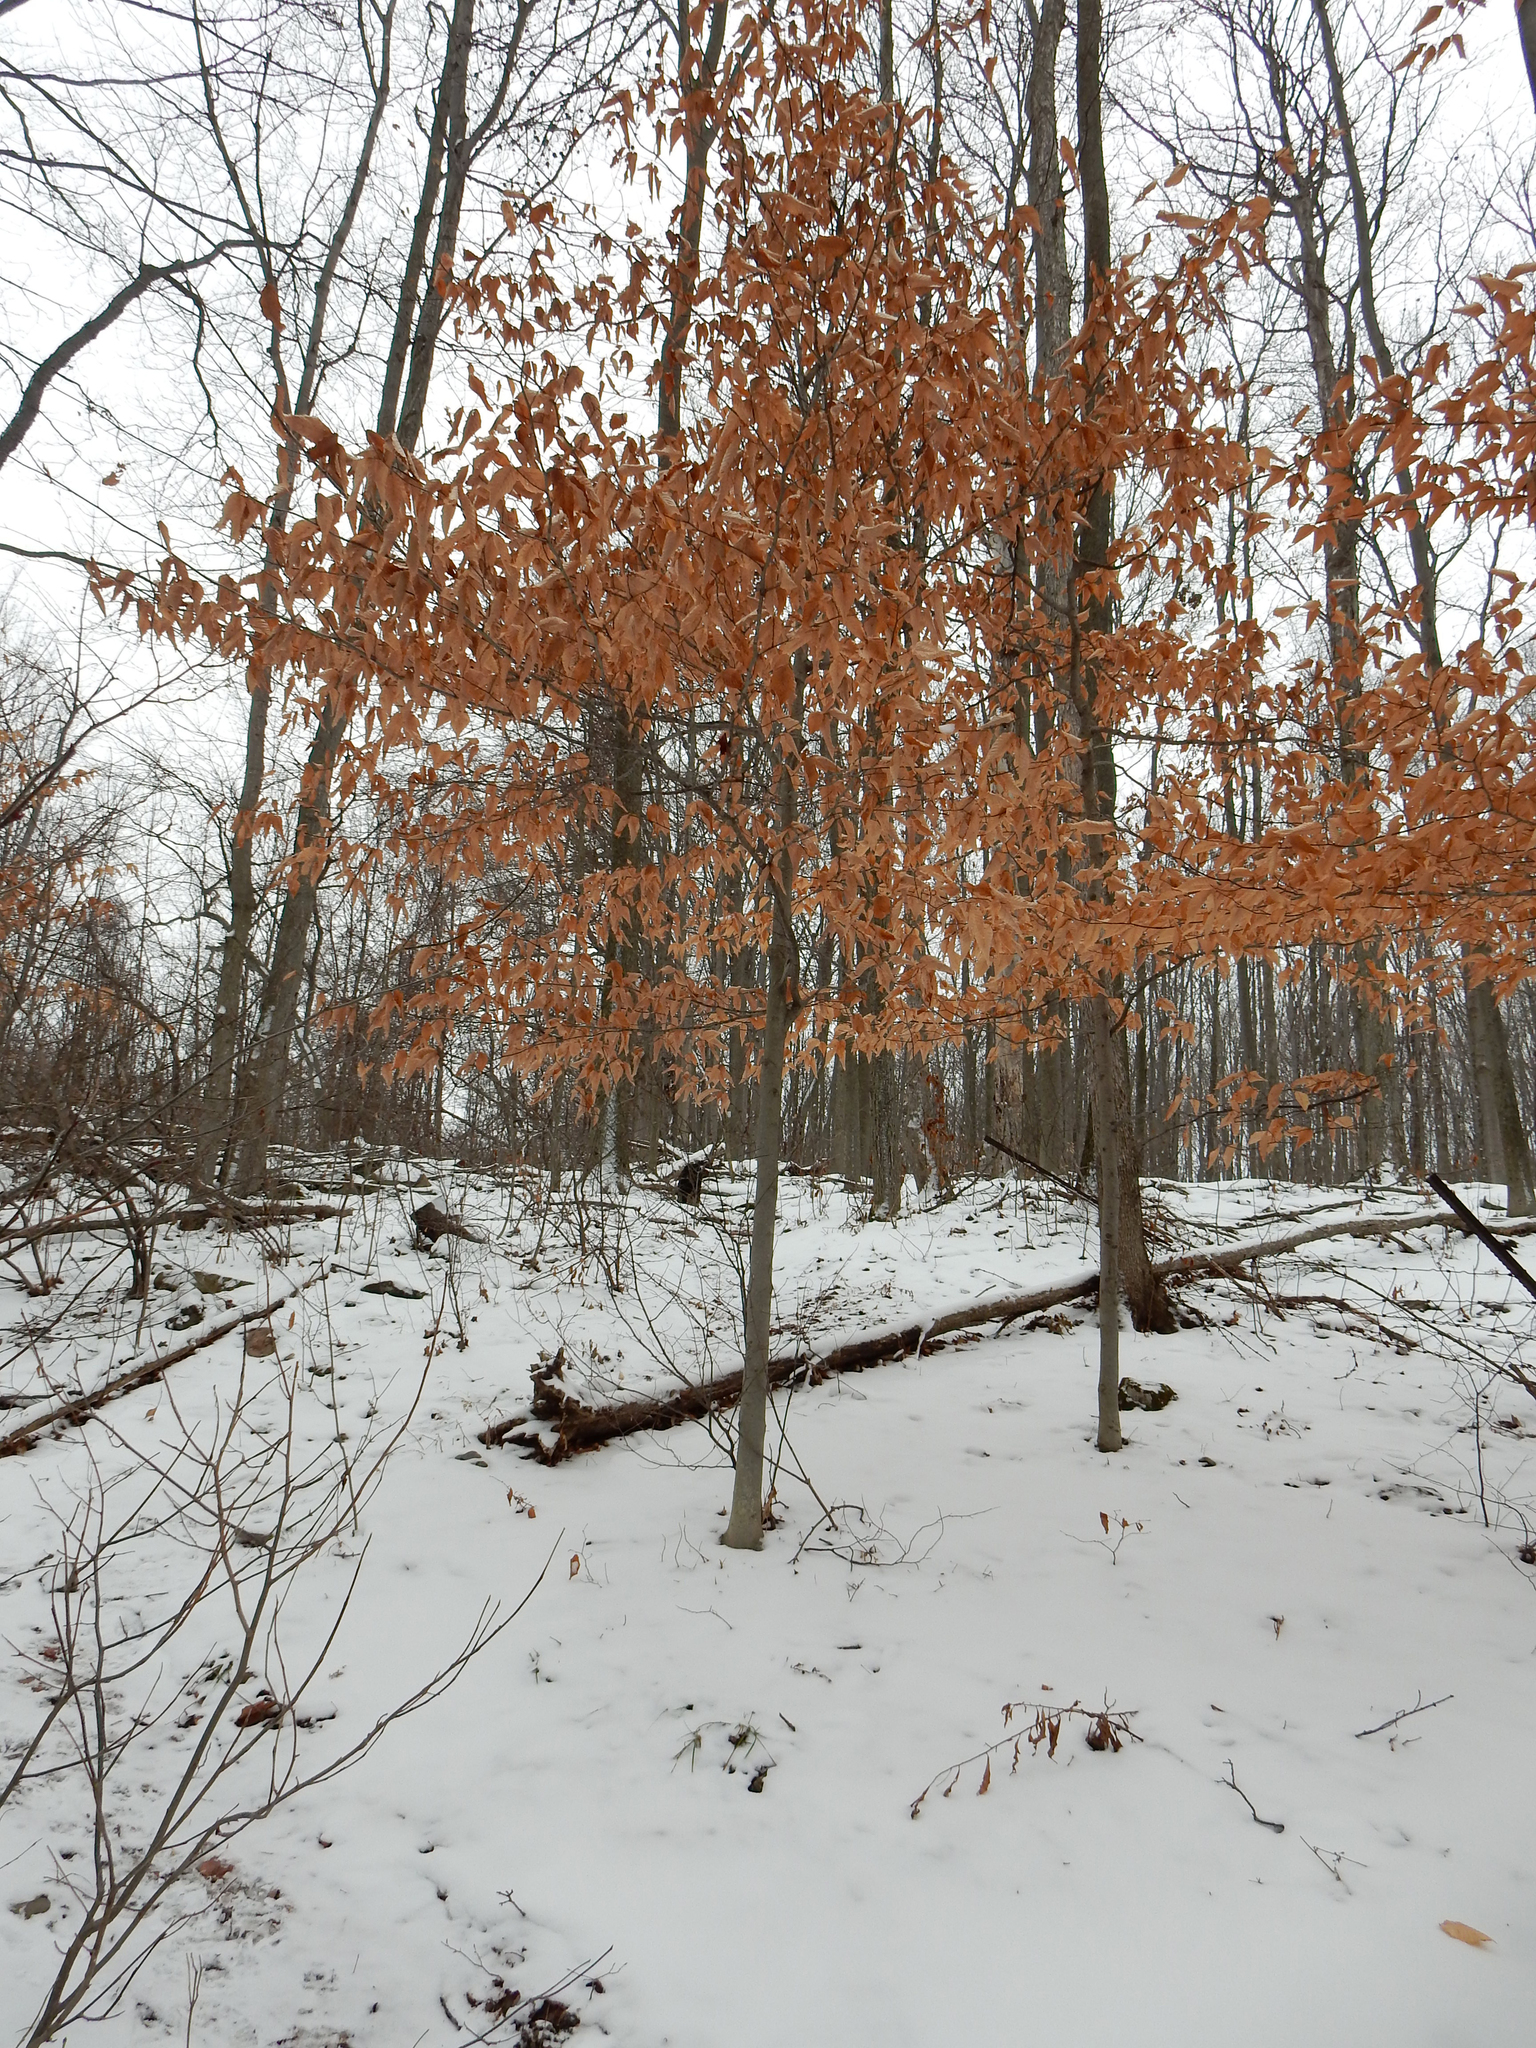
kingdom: Plantae
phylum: Tracheophyta
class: Magnoliopsida
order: Fagales
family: Fagaceae
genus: Fagus
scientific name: Fagus grandifolia
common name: American beech
